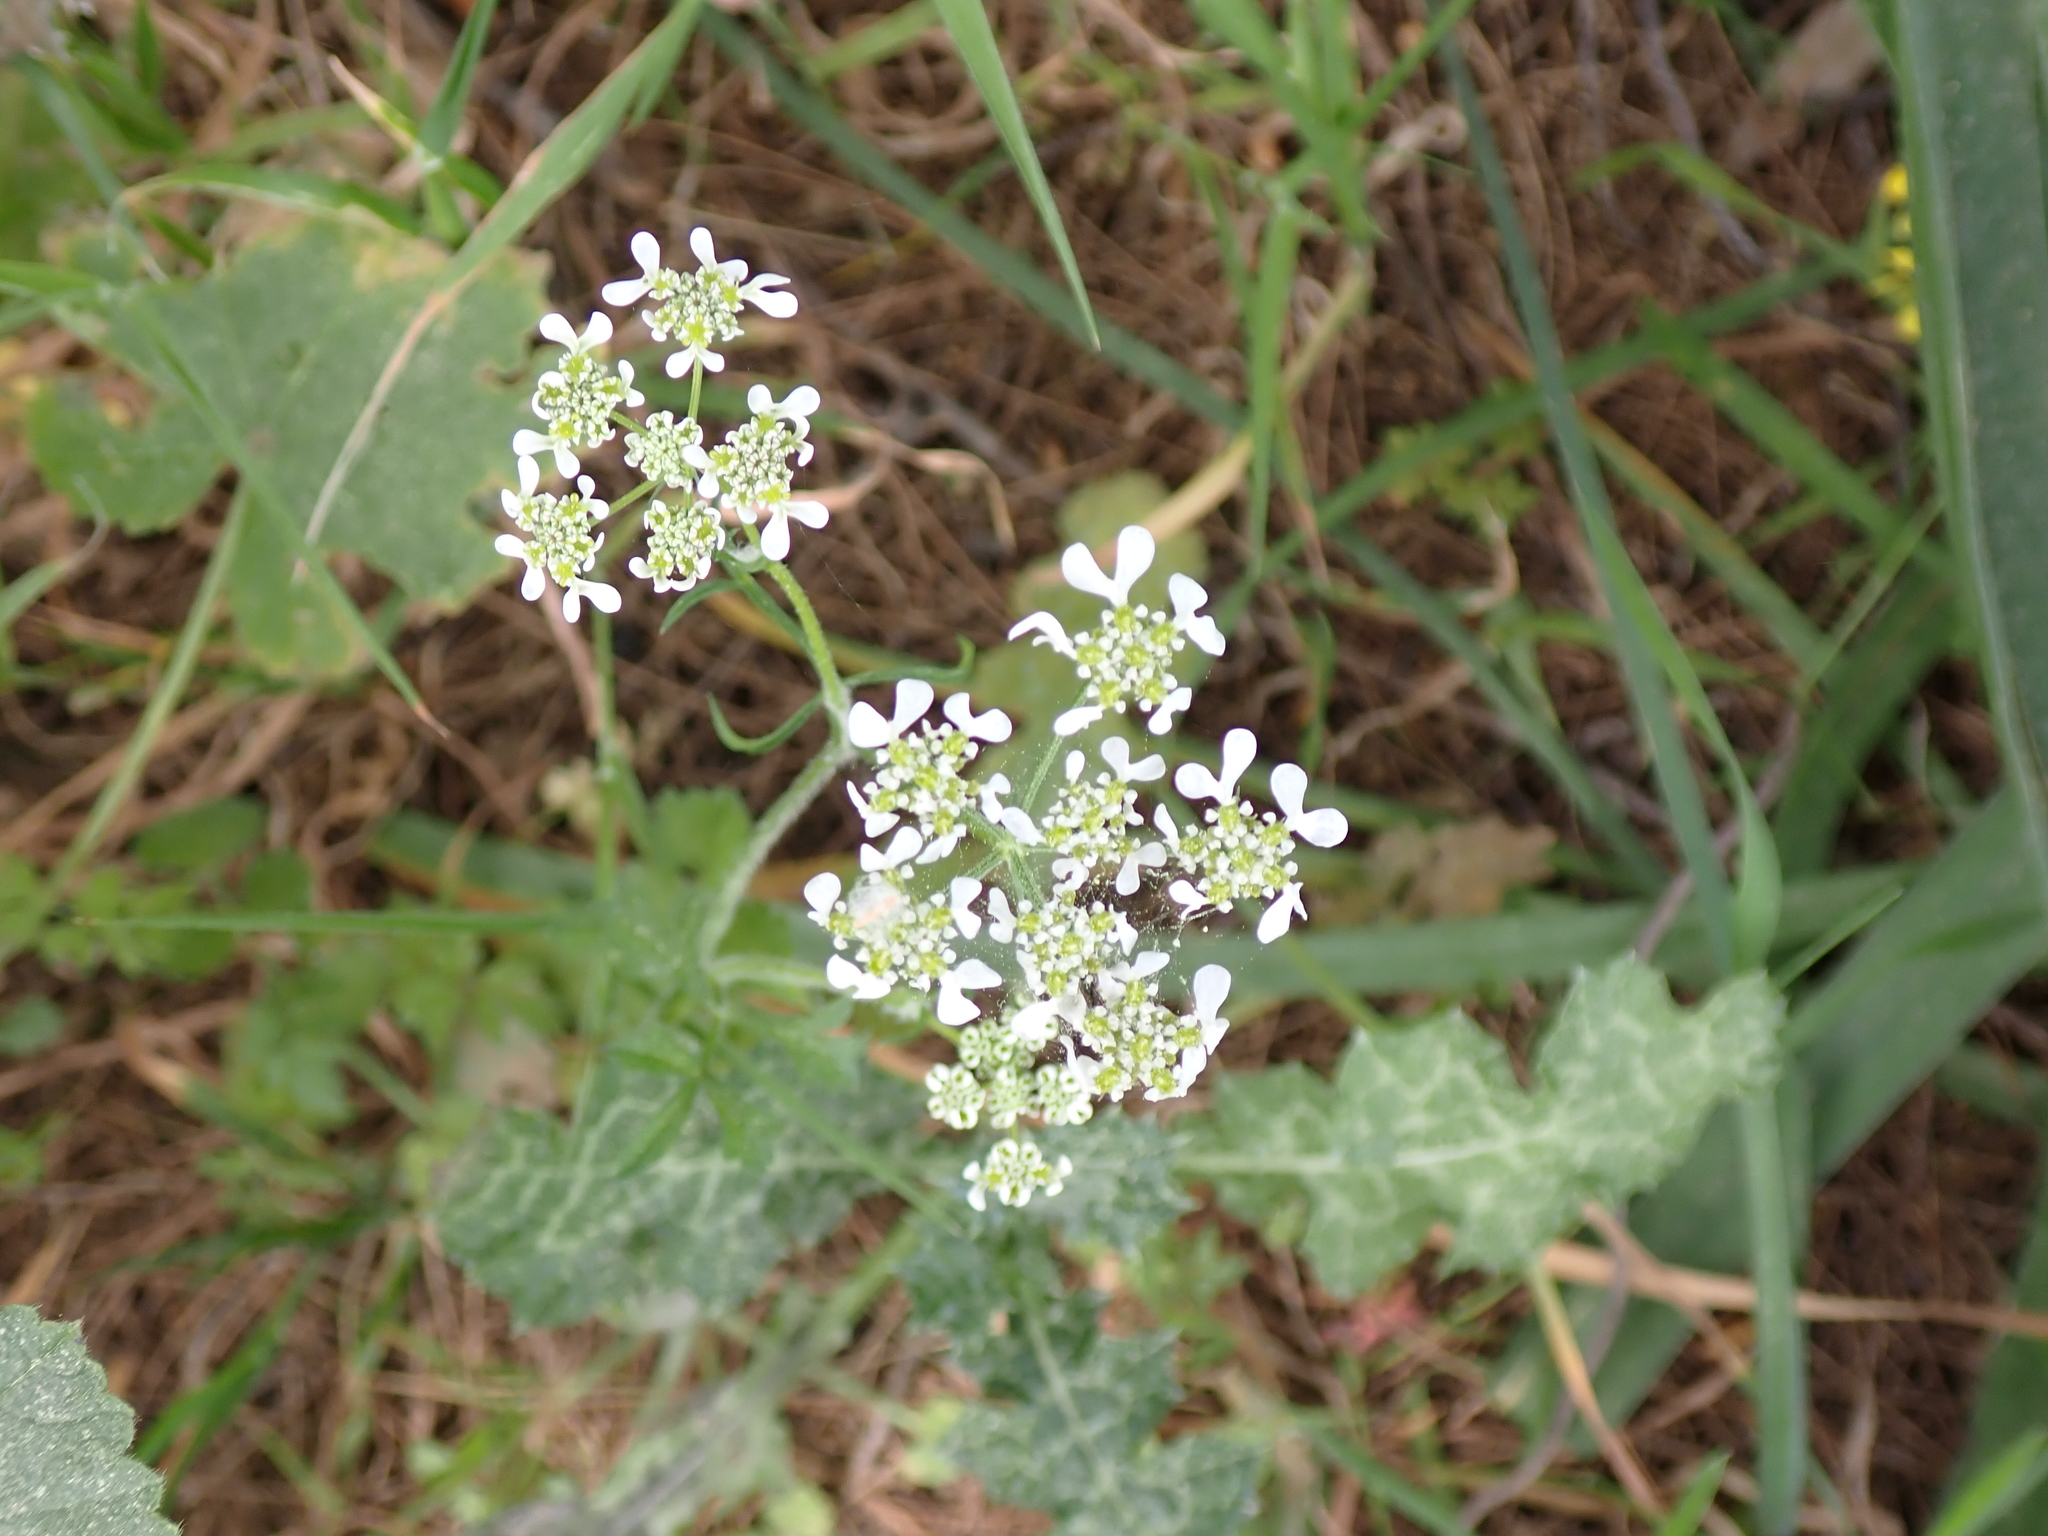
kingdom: Plantae
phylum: Tracheophyta
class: Magnoliopsida
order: Apiales
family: Apiaceae
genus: Tordylium
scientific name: Tordylium apulum
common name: Mediterranean hartwort
